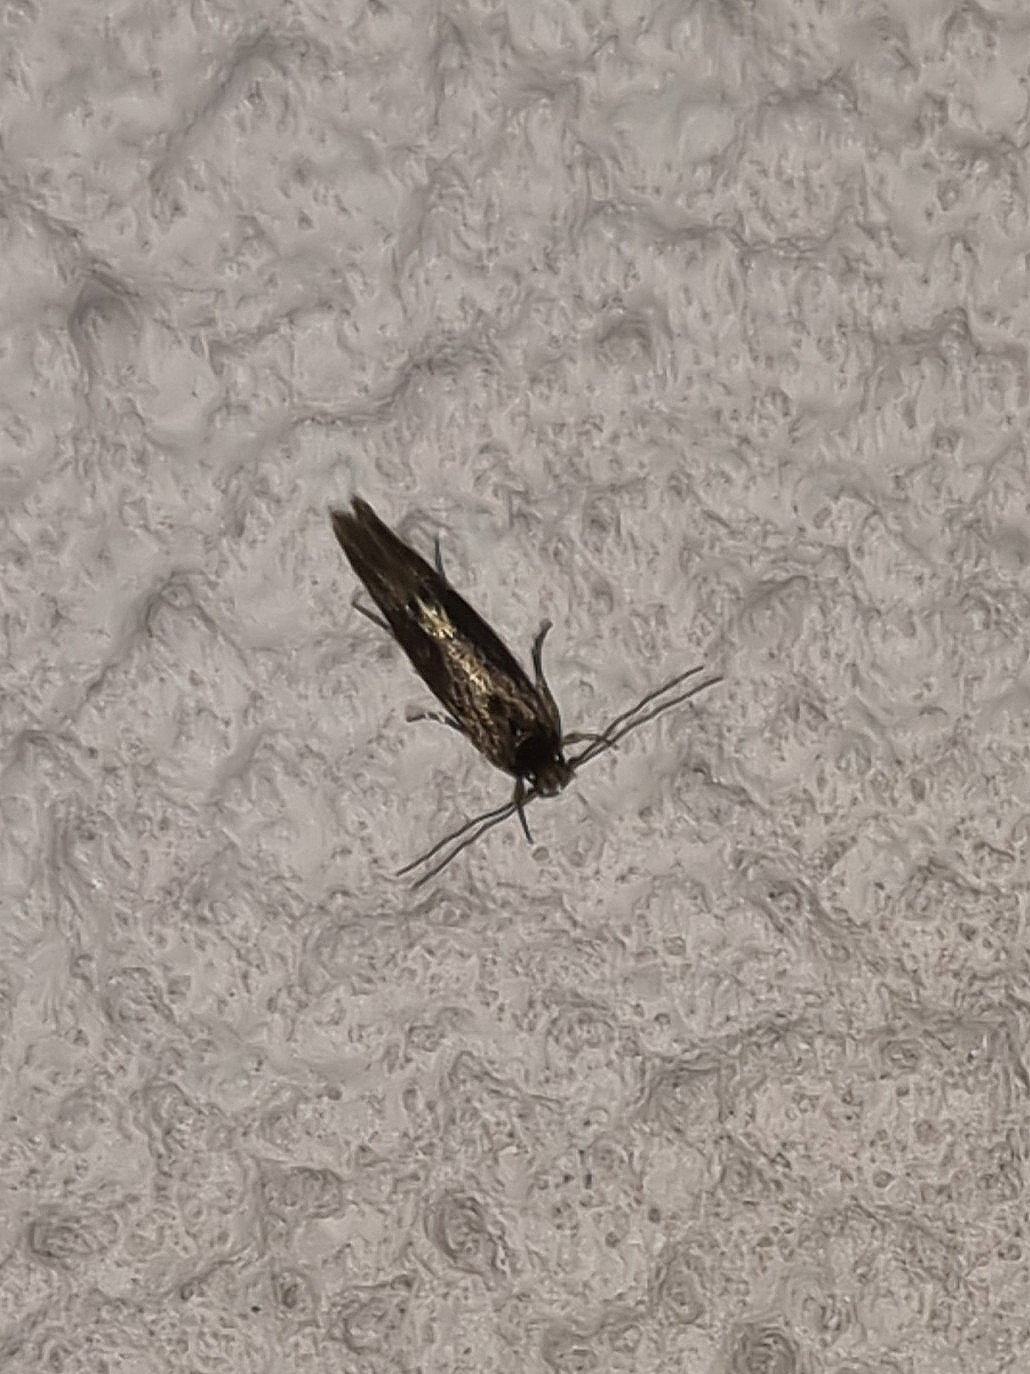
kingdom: Animalia
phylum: Arthropoda
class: Insecta
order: Lepidoptera
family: Tineidae
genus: Opogona
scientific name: Opogona omoscopa
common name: Moth
